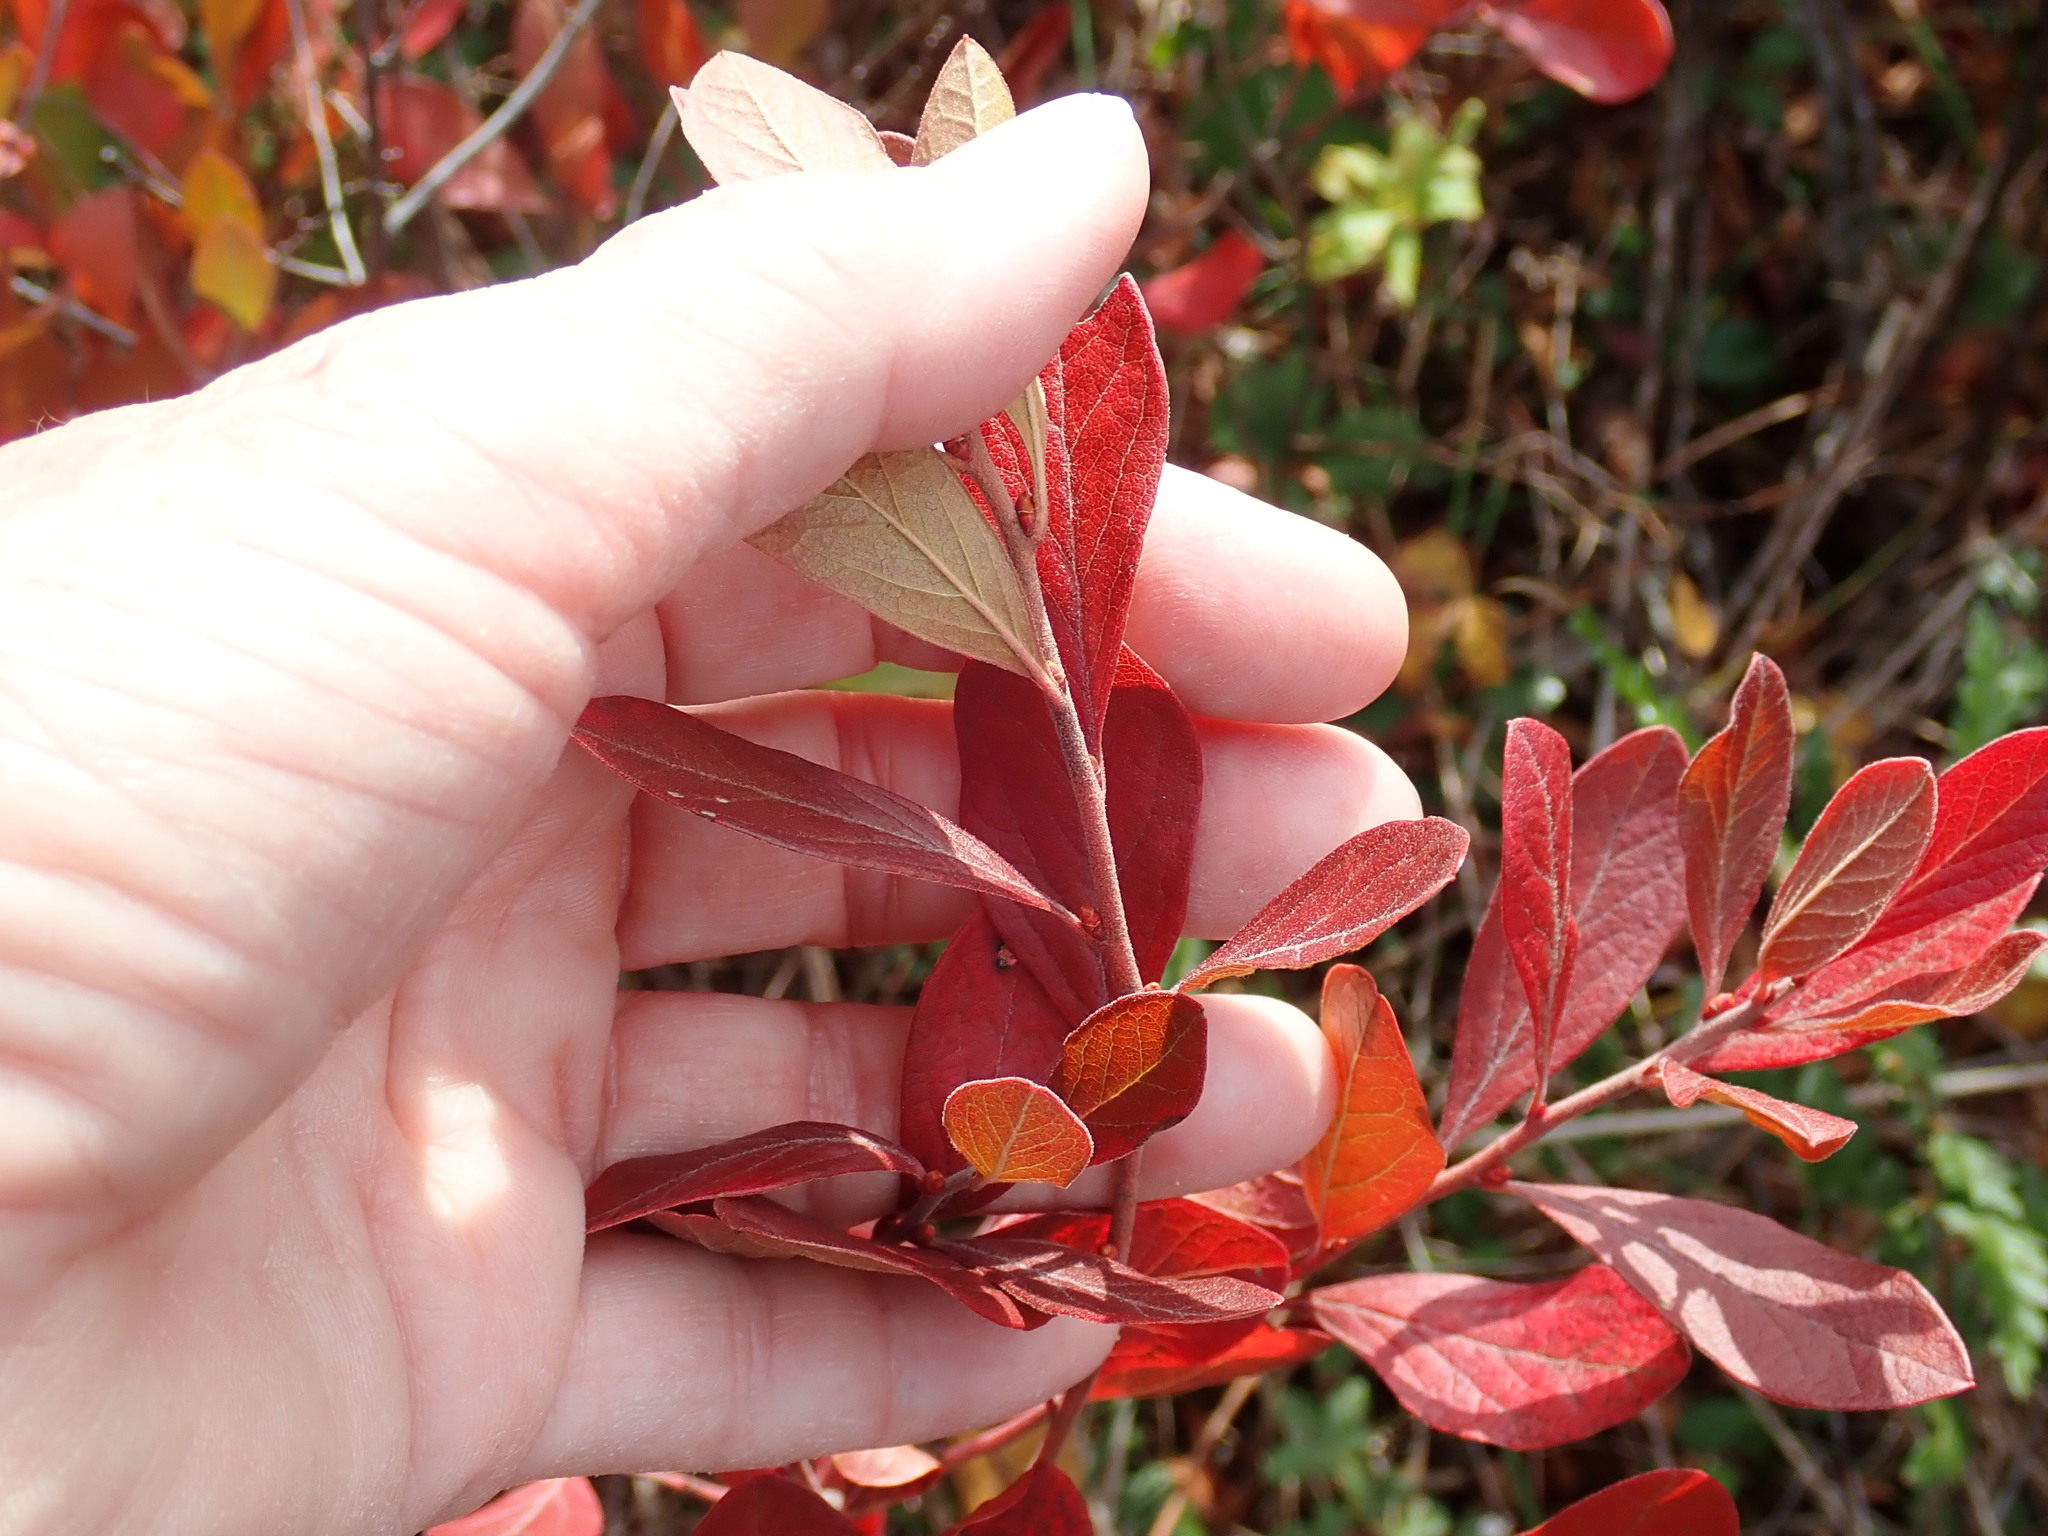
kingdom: Plantae
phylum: Tracheophyta
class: Magnoliopsida
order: Ericales
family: Ericaceae
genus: Gaylussacia
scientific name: Gaylussacia baccata
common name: Black huckleberry
